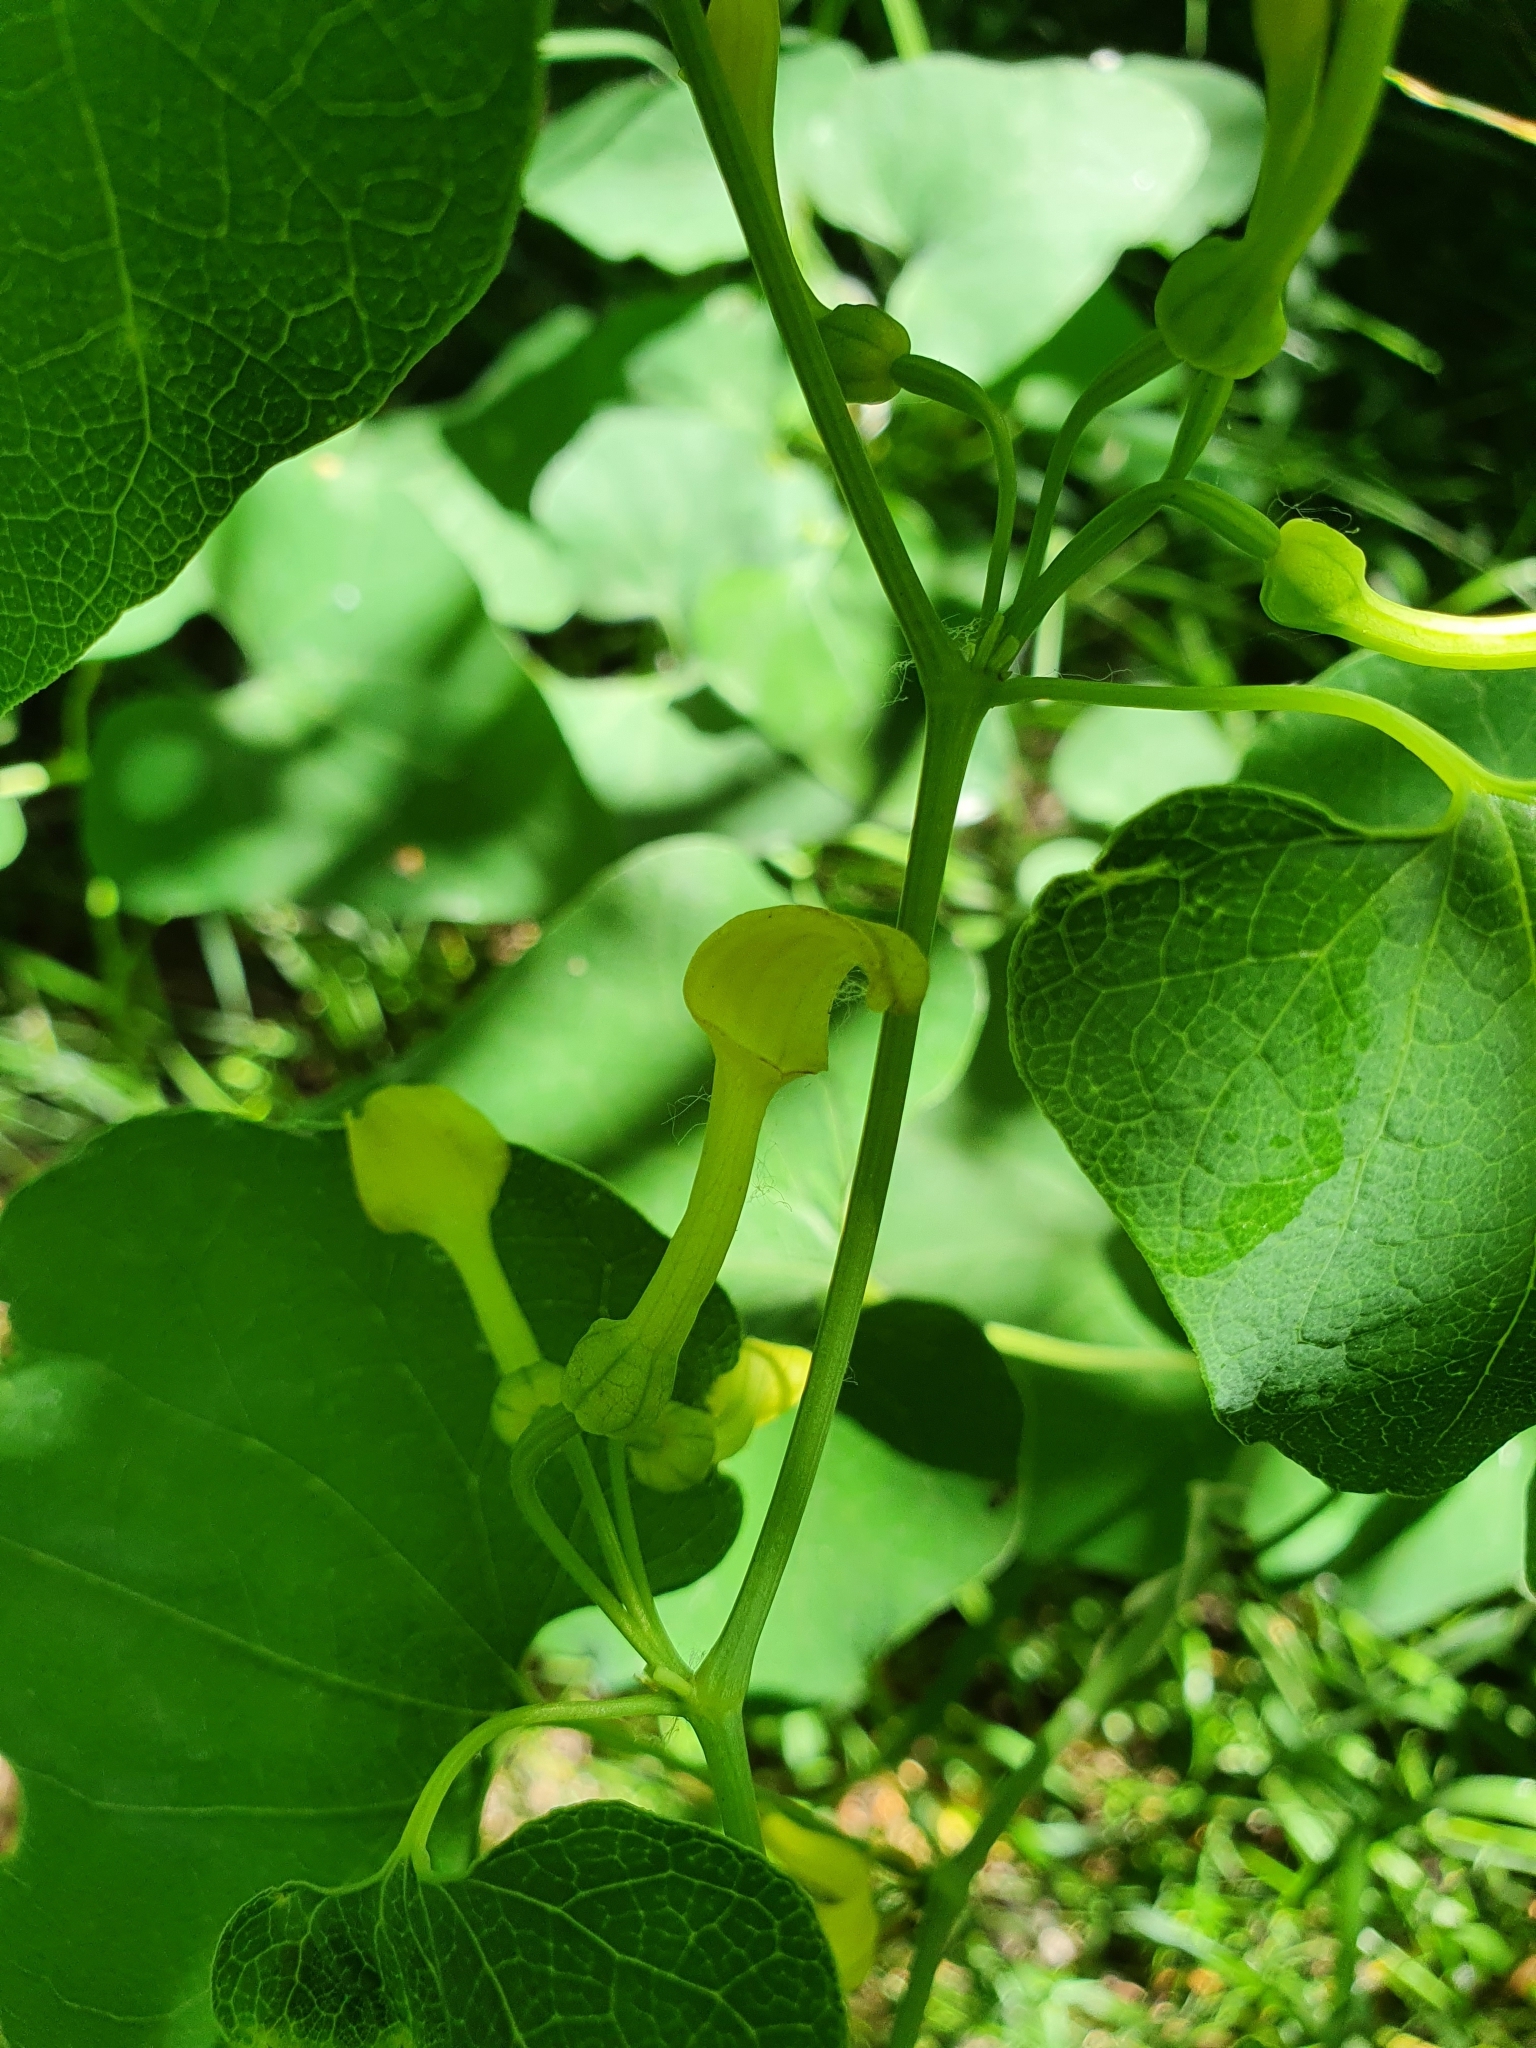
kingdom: Plantae
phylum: Tracheophyta
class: Magnoliopsida
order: Piperales
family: Aristolochiaceae
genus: Aristolochia
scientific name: Aristolochia clematitis
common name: Birthwort
